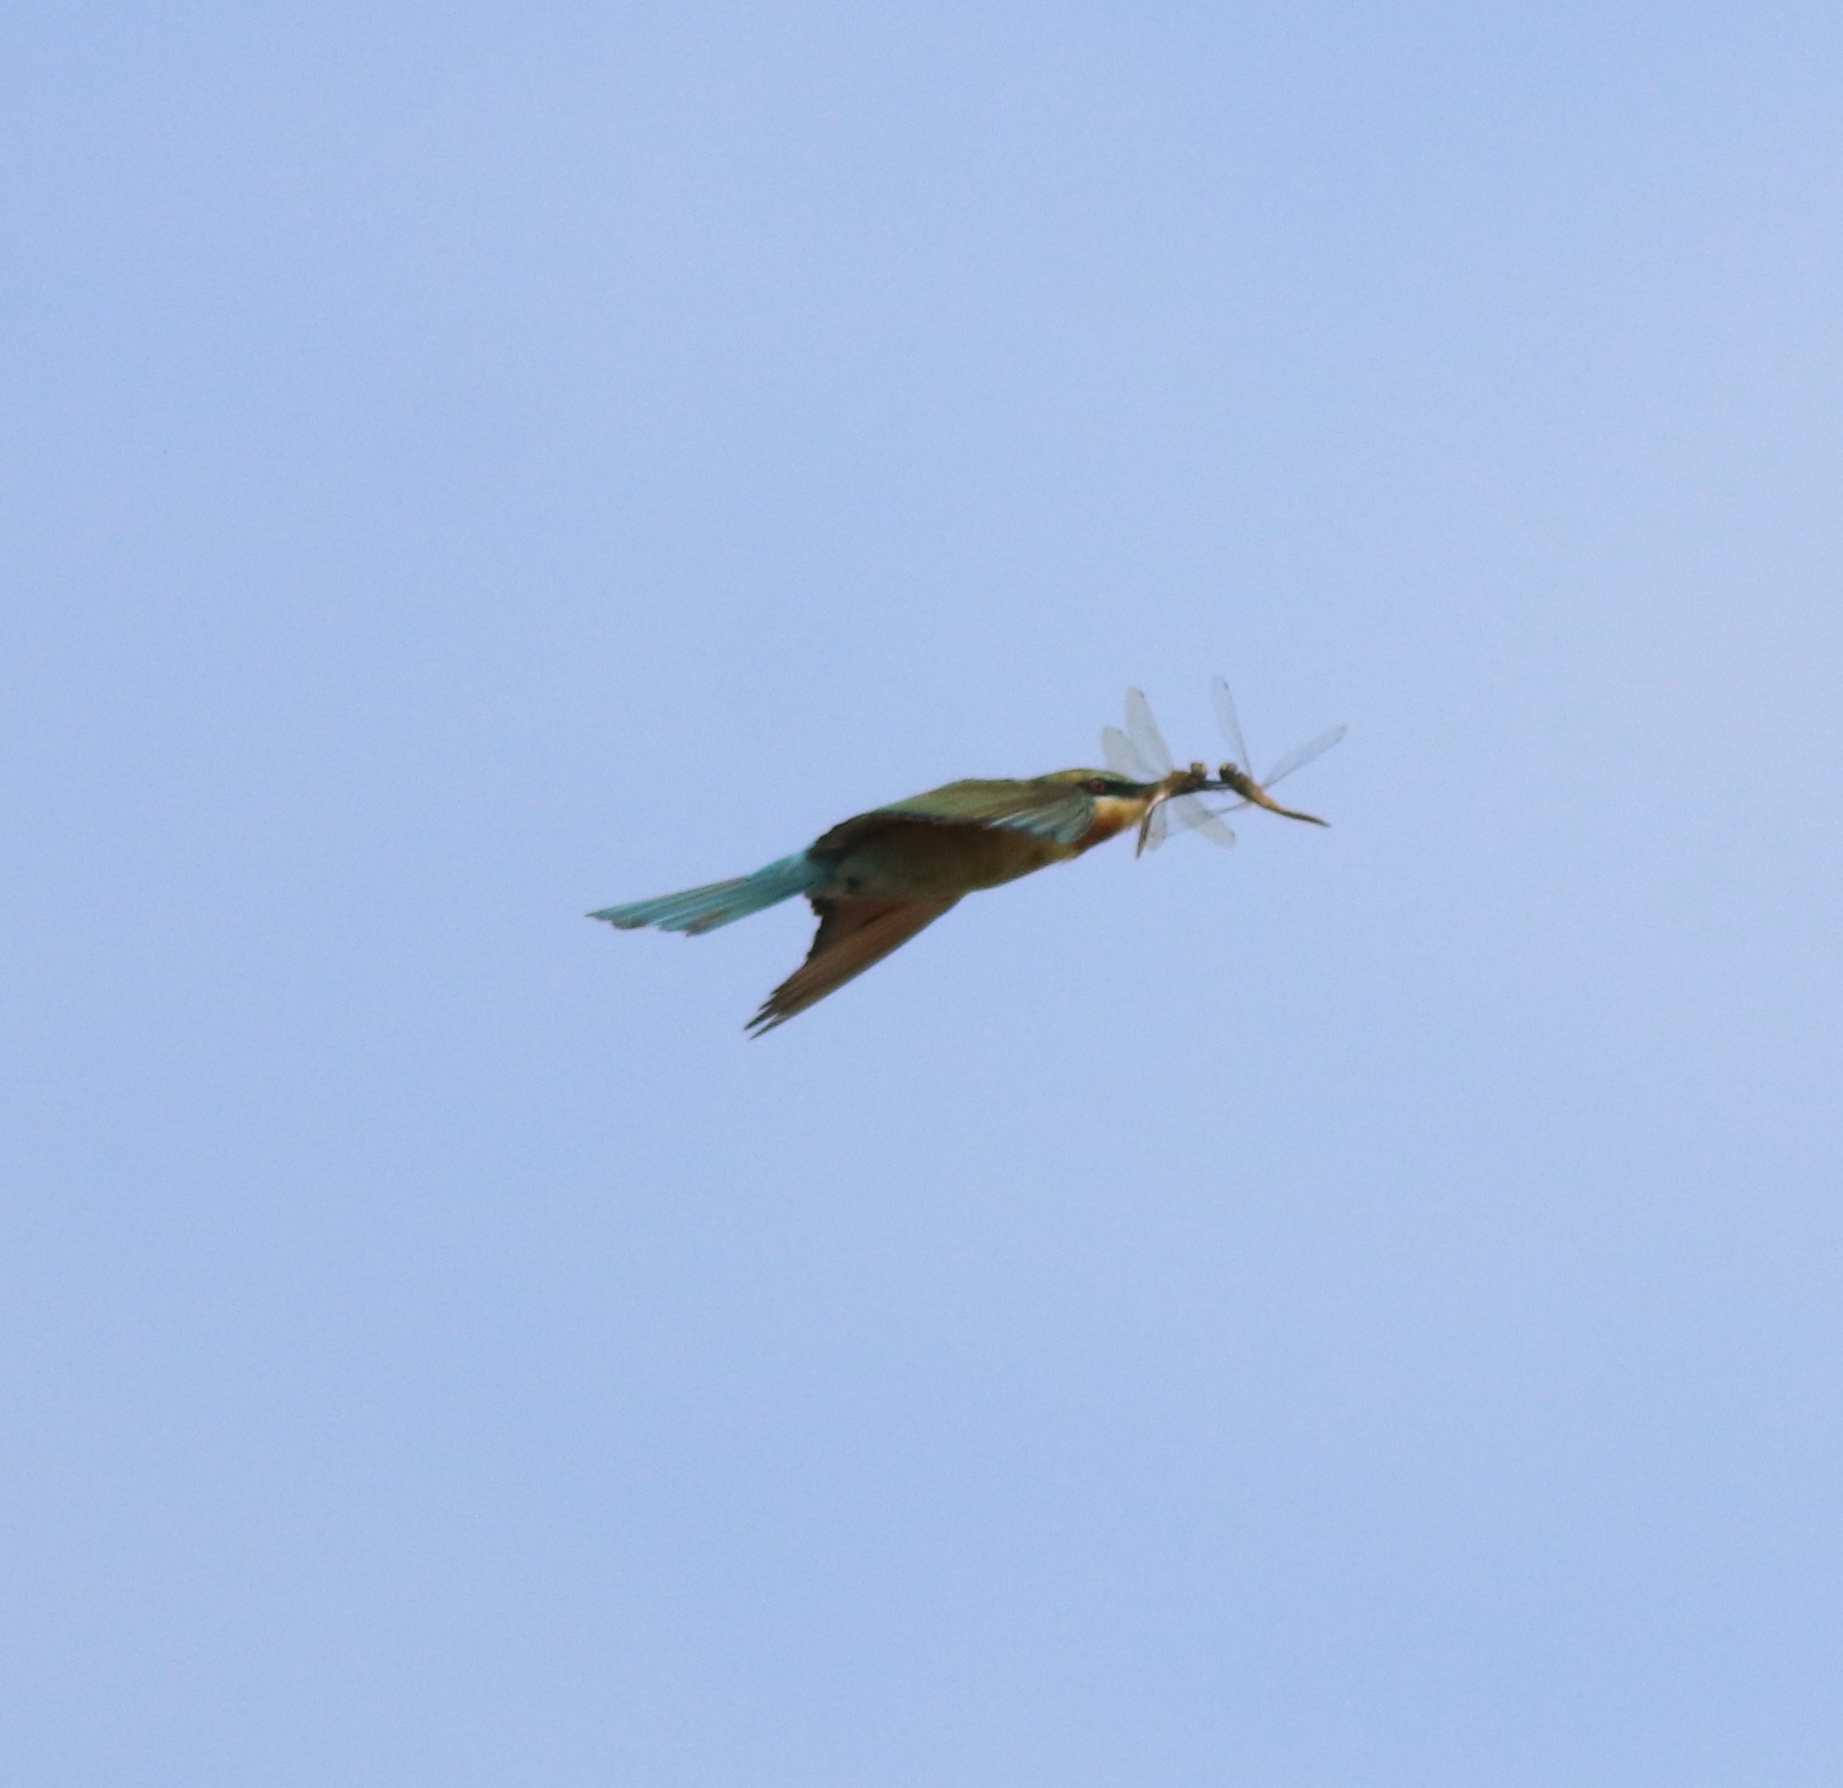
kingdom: Animalia
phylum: Chordata
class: Aves
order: Coraciiformes
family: Meropidae
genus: Merops
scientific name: Merops philippinus
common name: Blue-tailed bee-eater
